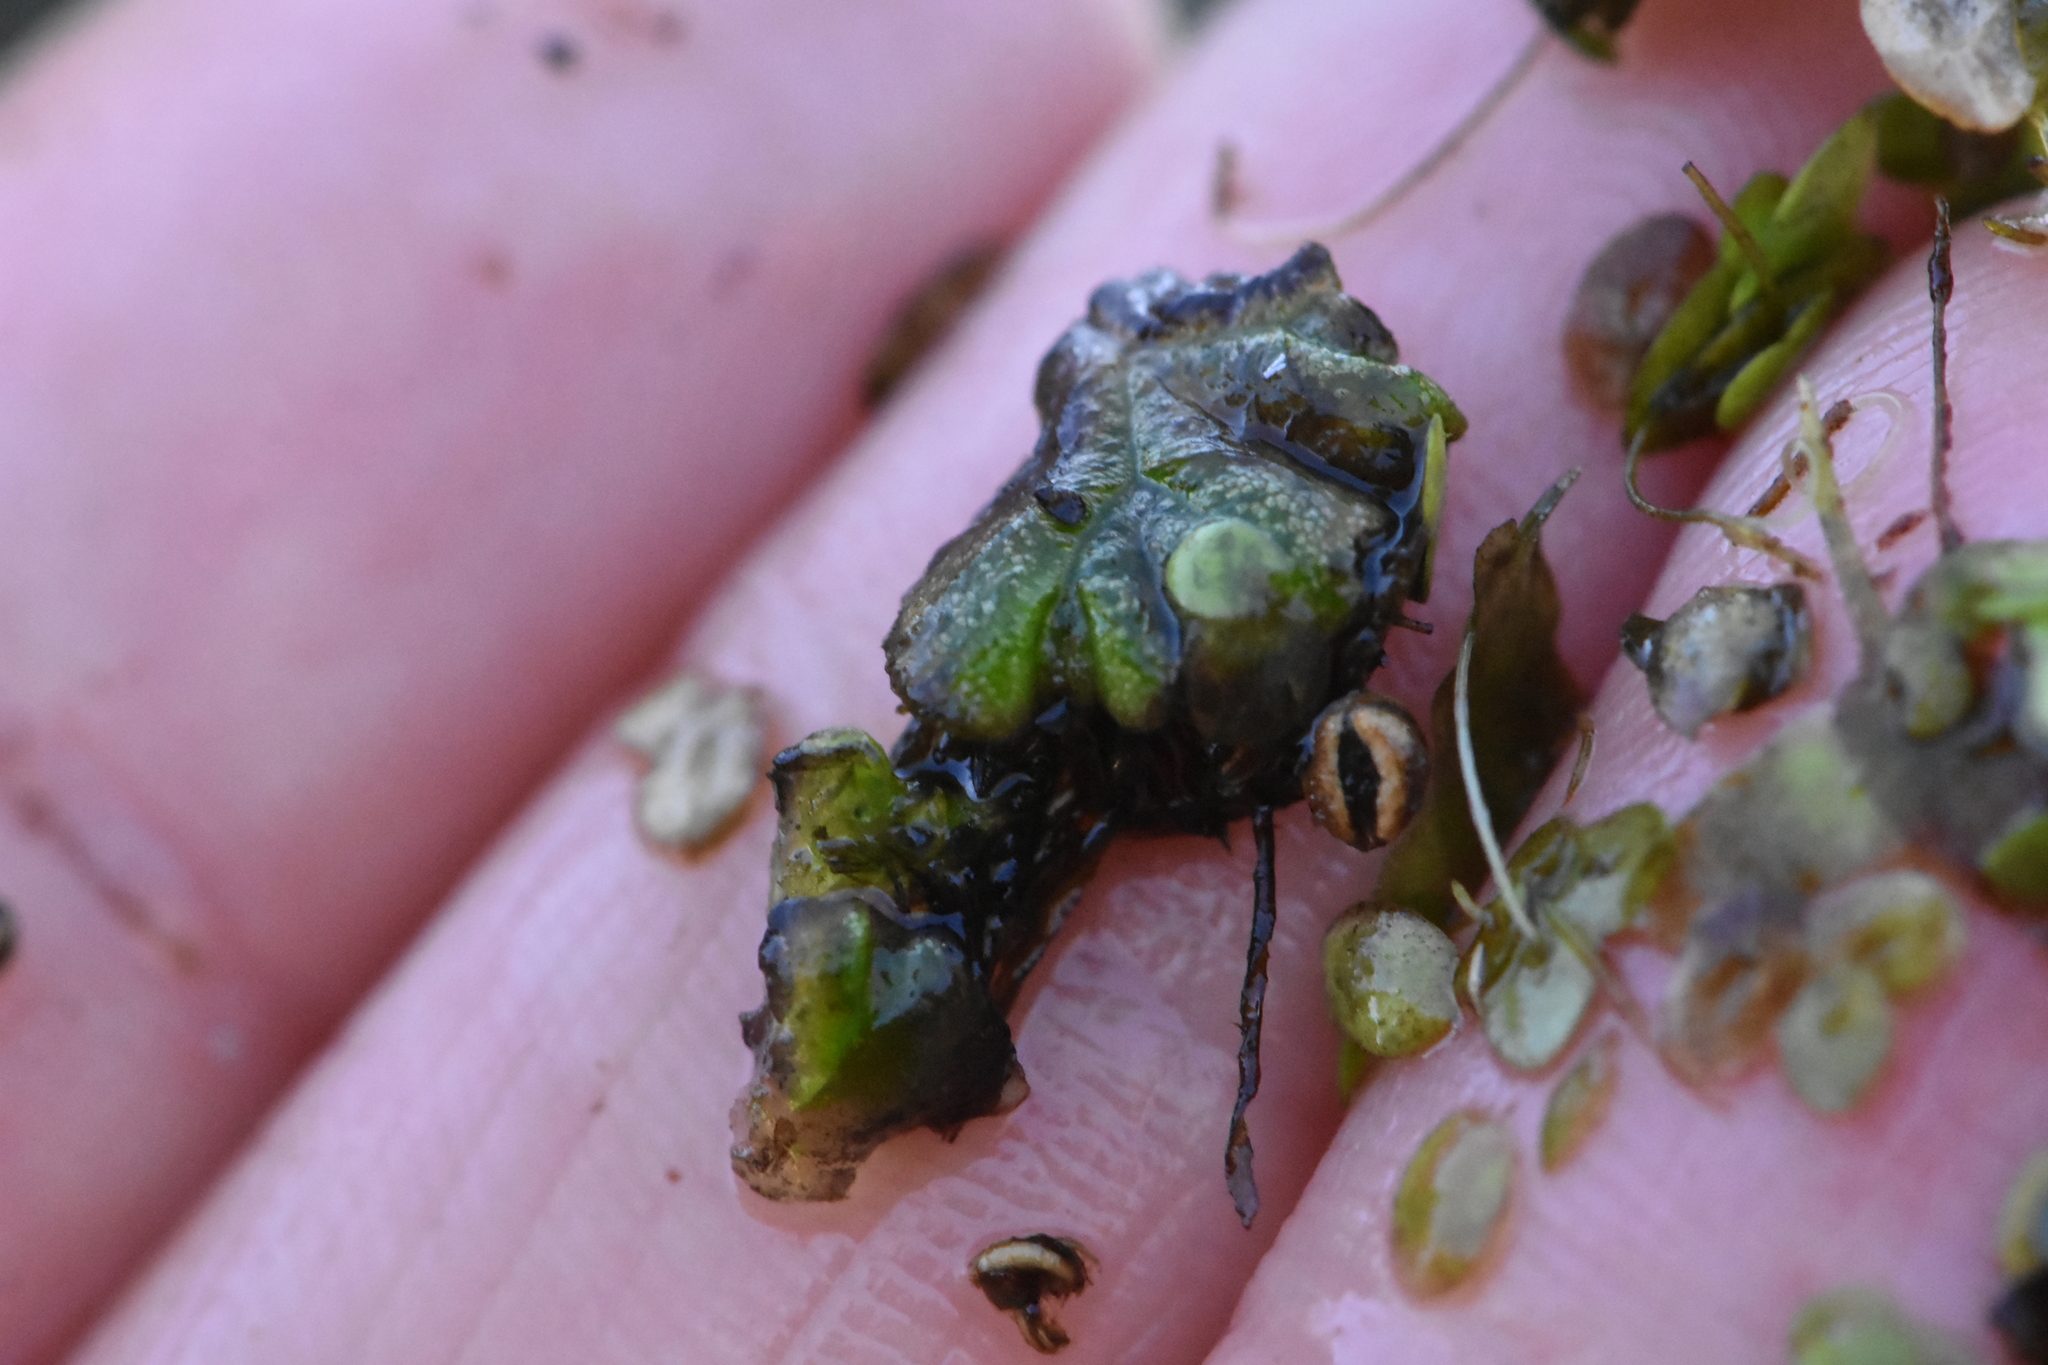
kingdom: Plantae
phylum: Marchantiophyta
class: Marchantiopsida
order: Marchantiales
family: Ricciaceae
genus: Ricciocarpos
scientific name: Ricciocarpos natans
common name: Purple-fringed liverwort
